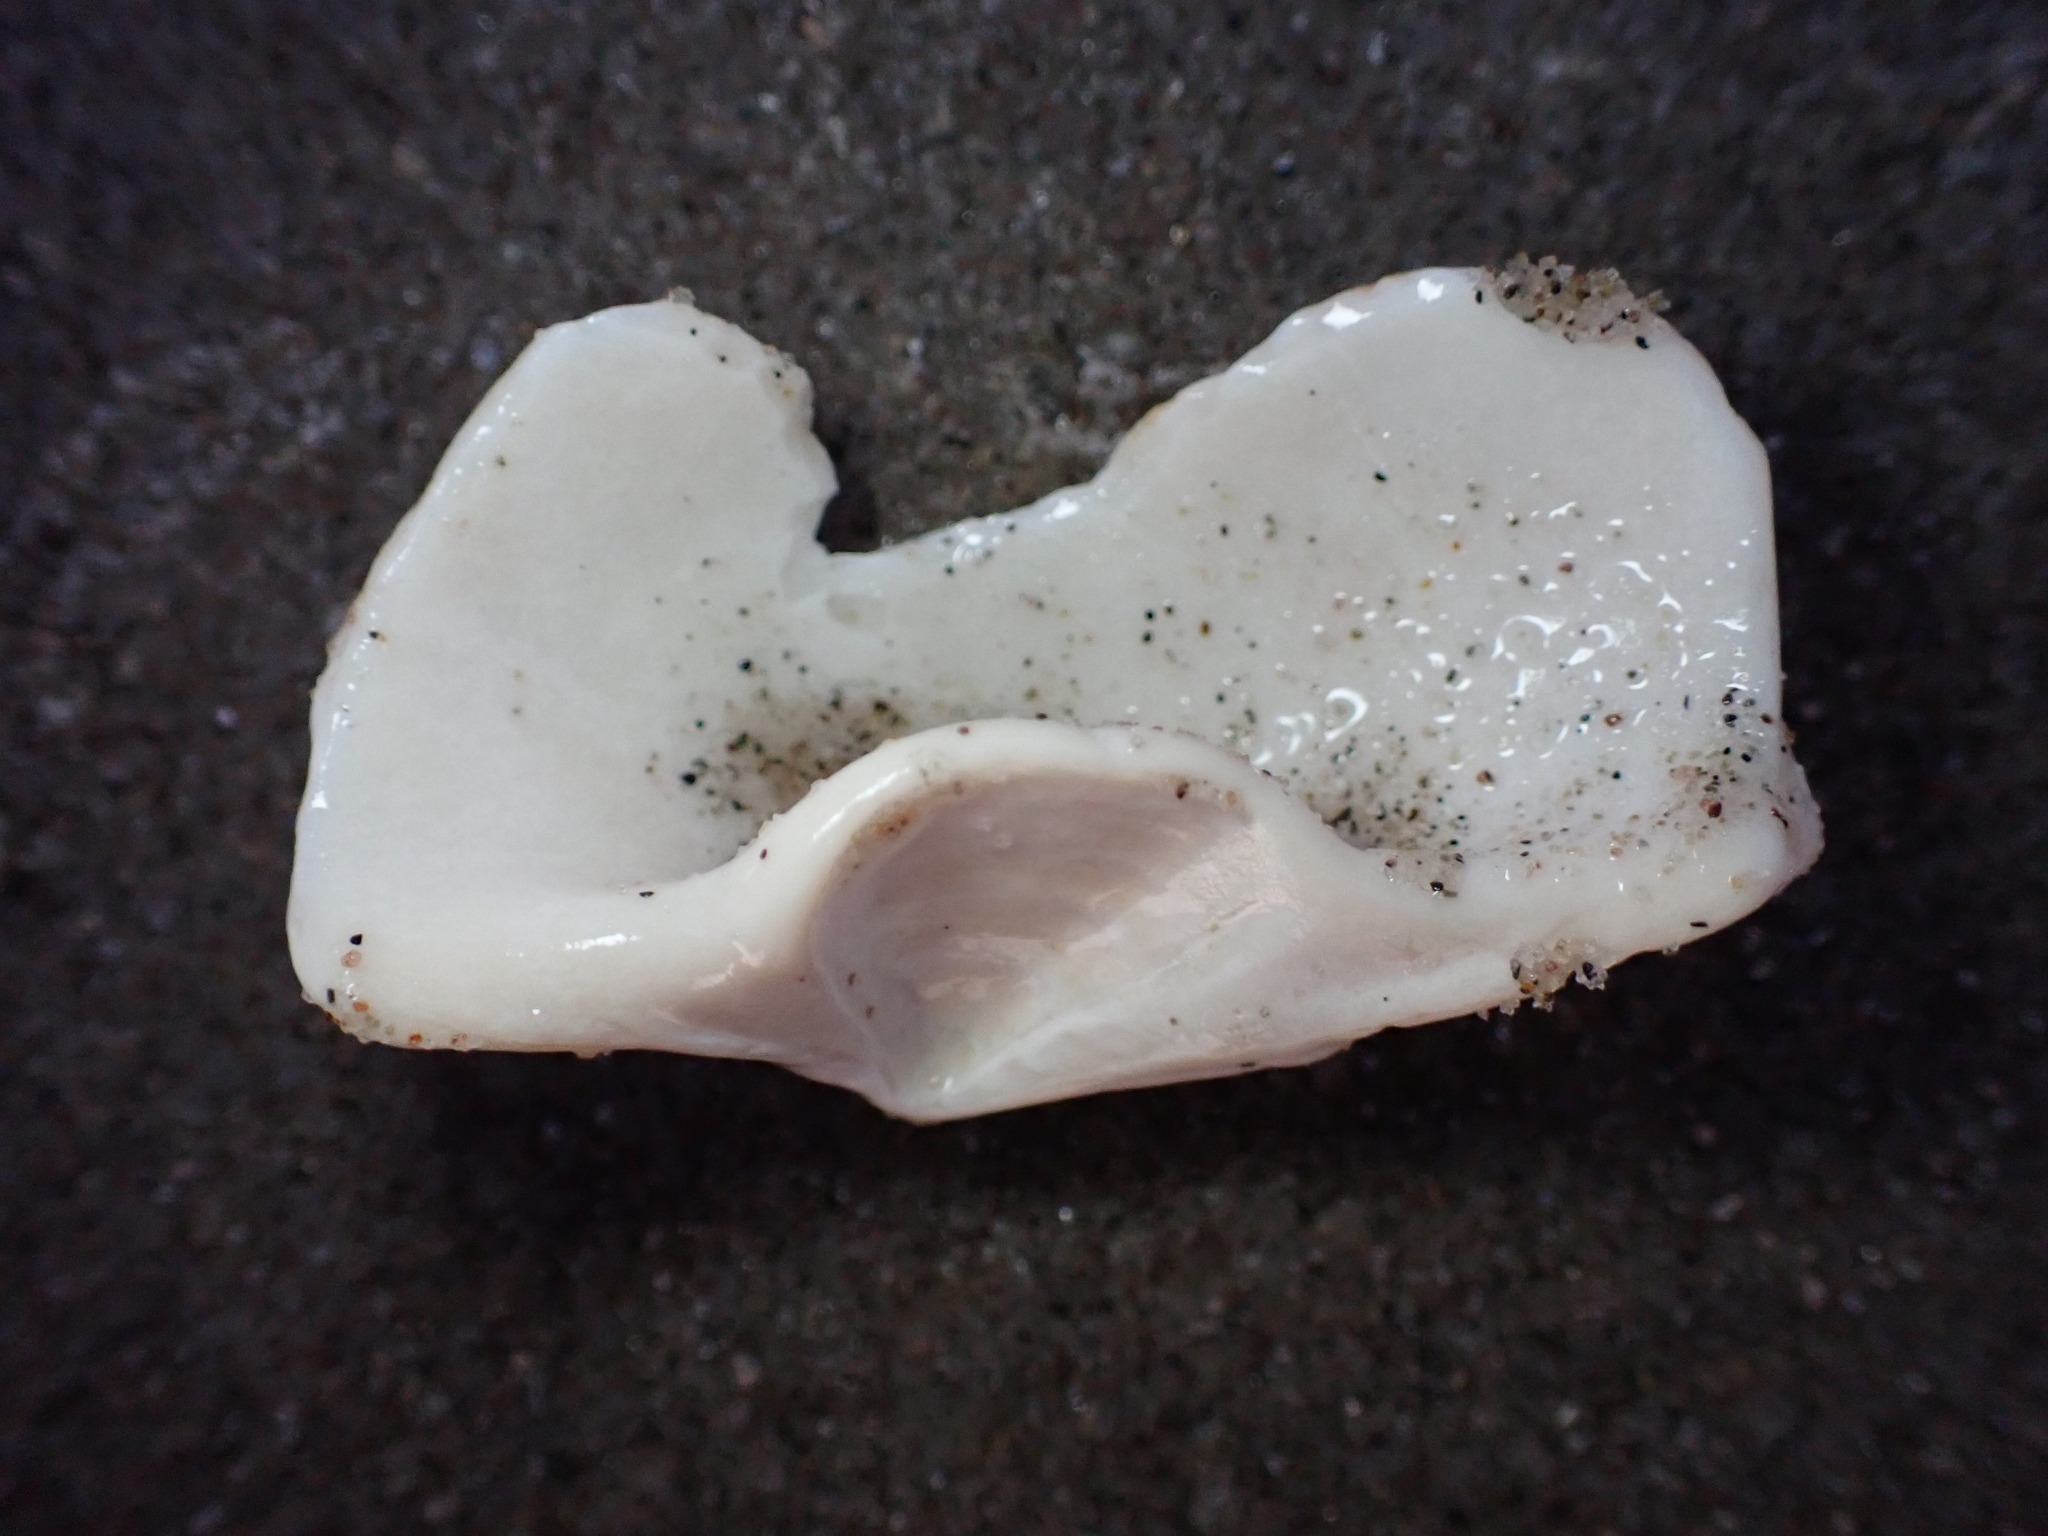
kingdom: Animalia
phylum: Mollusca
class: Bivalvia
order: Venerida
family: Mactridae
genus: Spisula
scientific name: Spisula solidissima
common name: Atlantic surf clam
